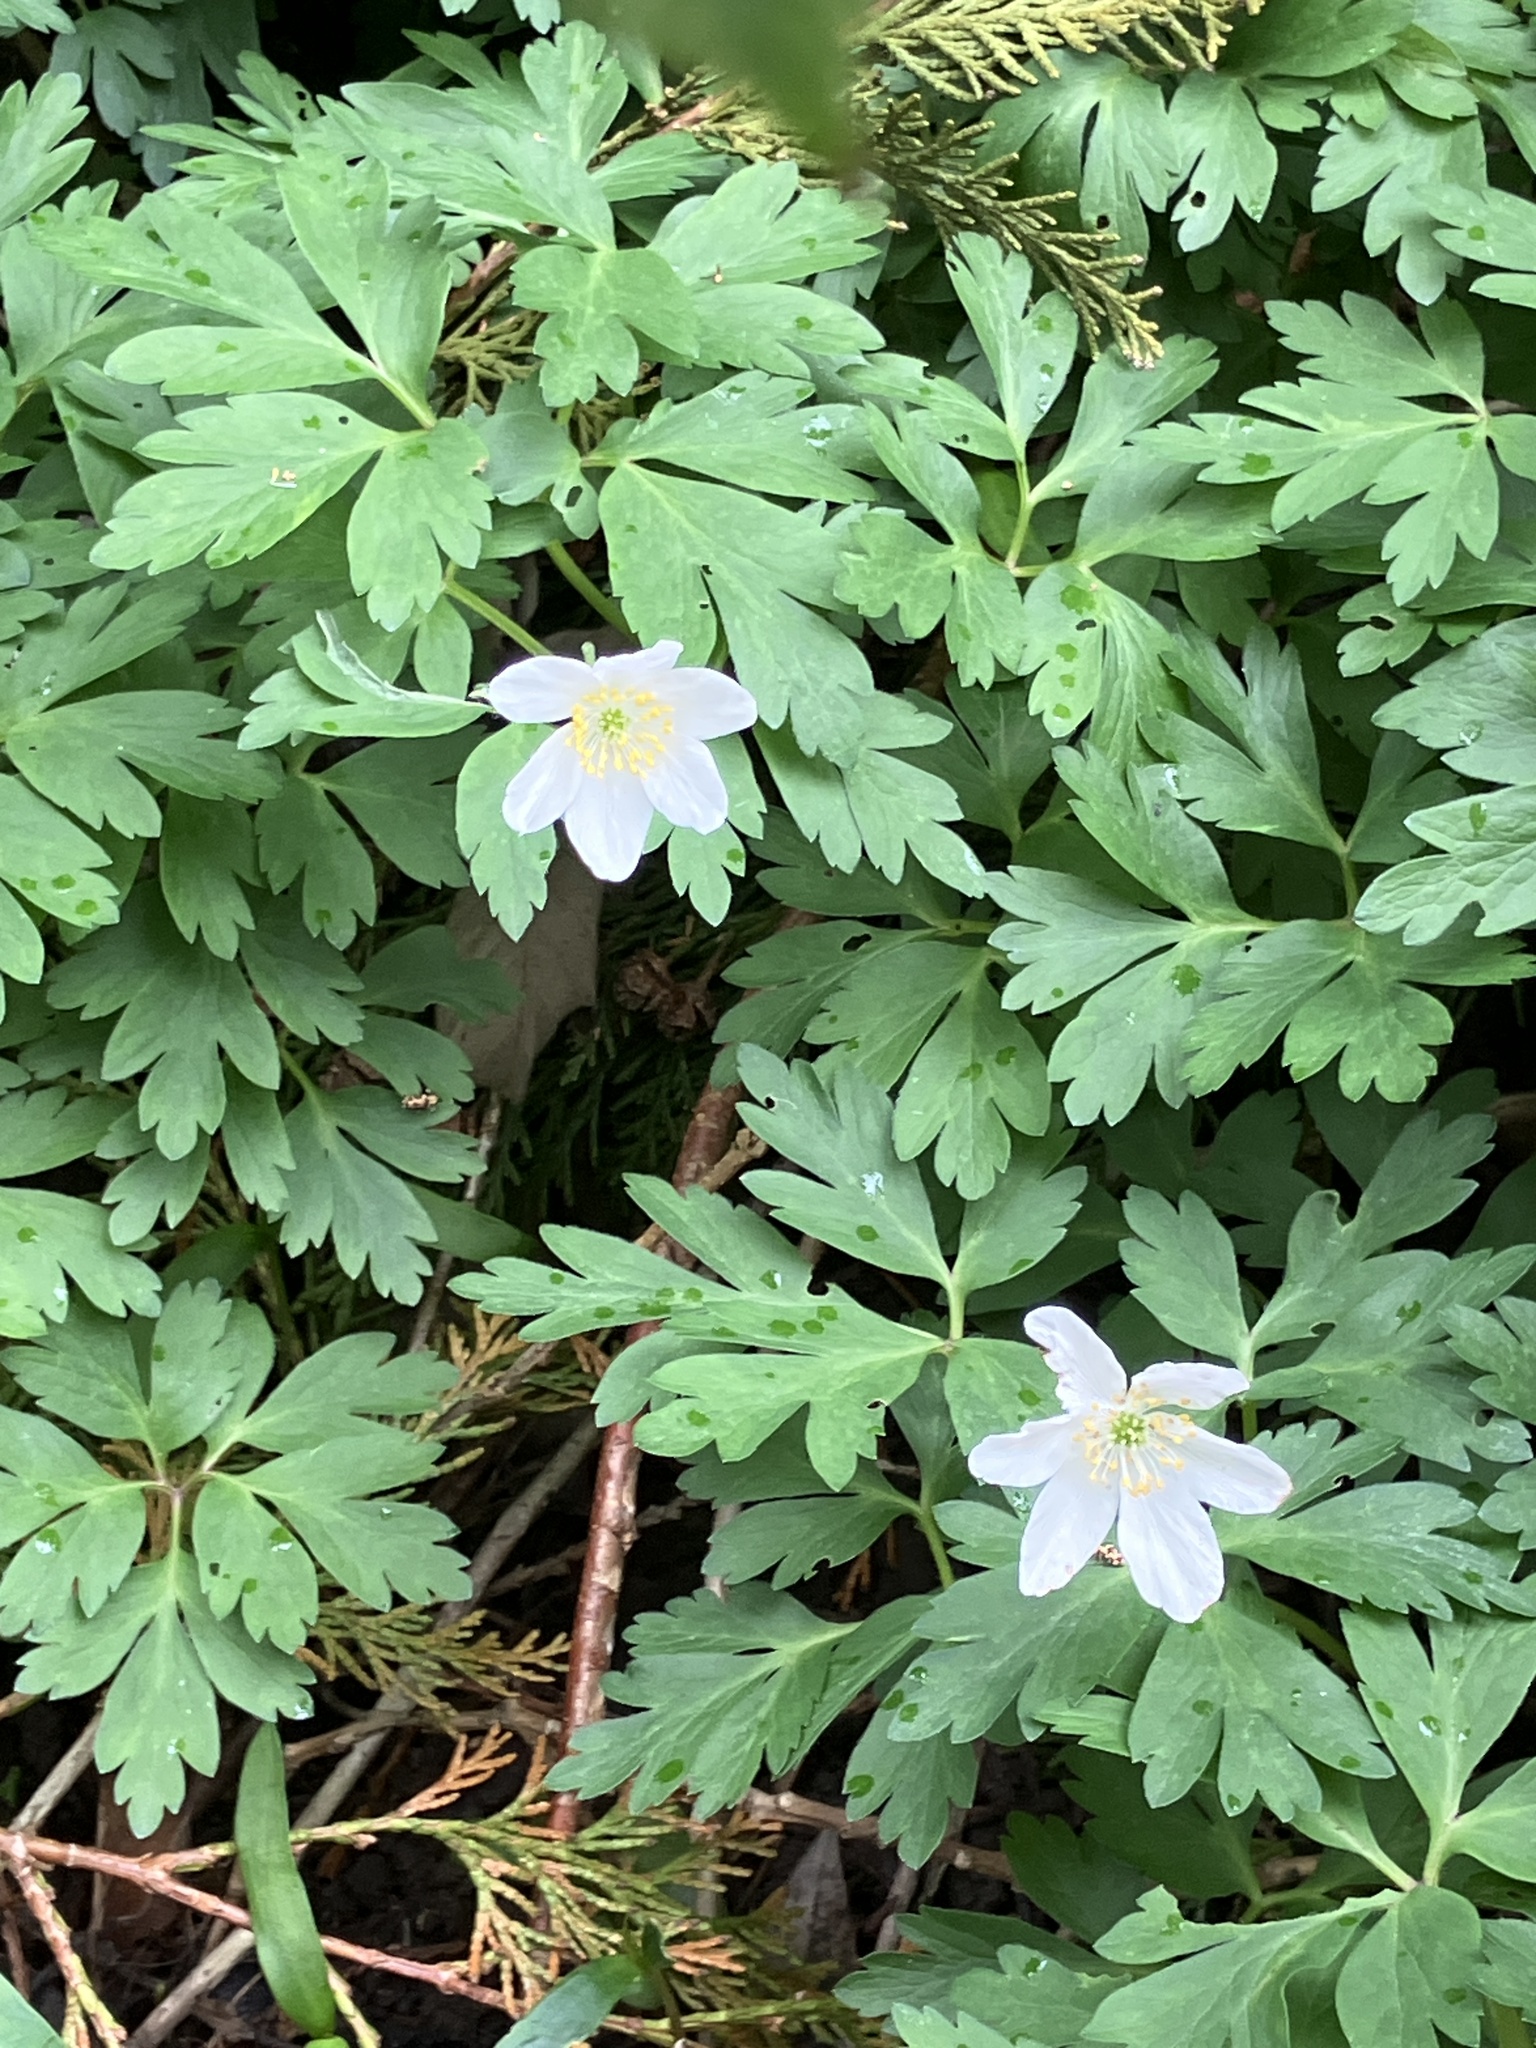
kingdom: Plantae
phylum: Tracheophyta
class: Magnoliopsida
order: Ranunculales
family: Ranunculaceae
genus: Anemone
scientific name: Anemone nemorosa
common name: Wood anemone
